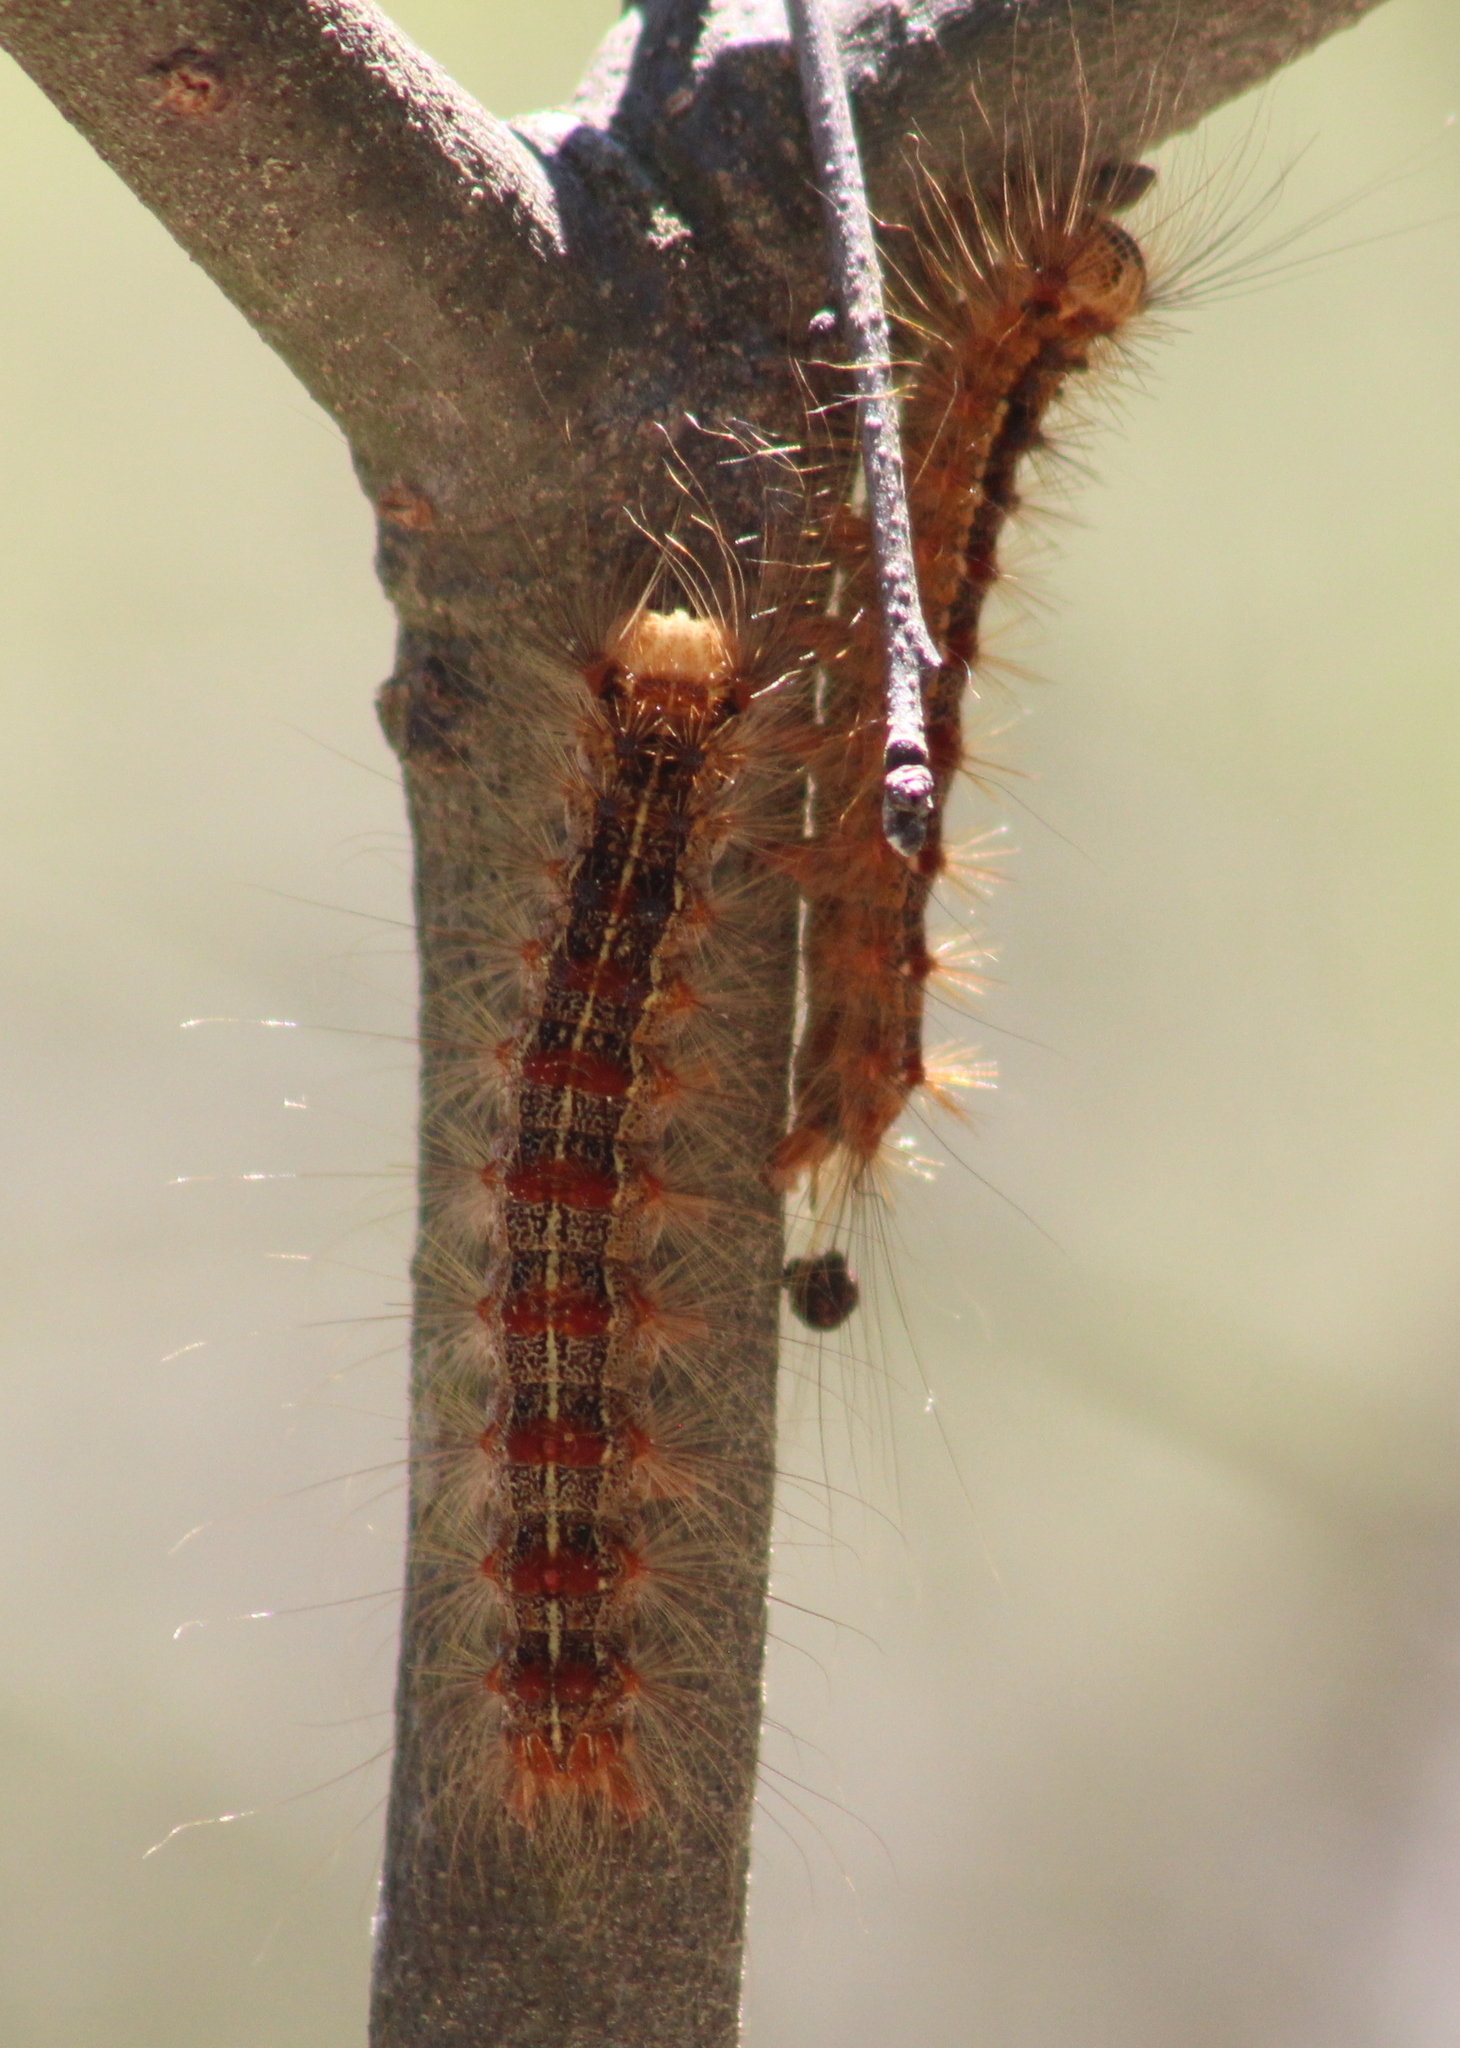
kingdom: Animalia
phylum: Arthropoda
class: Insecta
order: Lepidoptera
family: Erebidae
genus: Lymantria
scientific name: Lymantria dispar
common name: Gypsy moth
